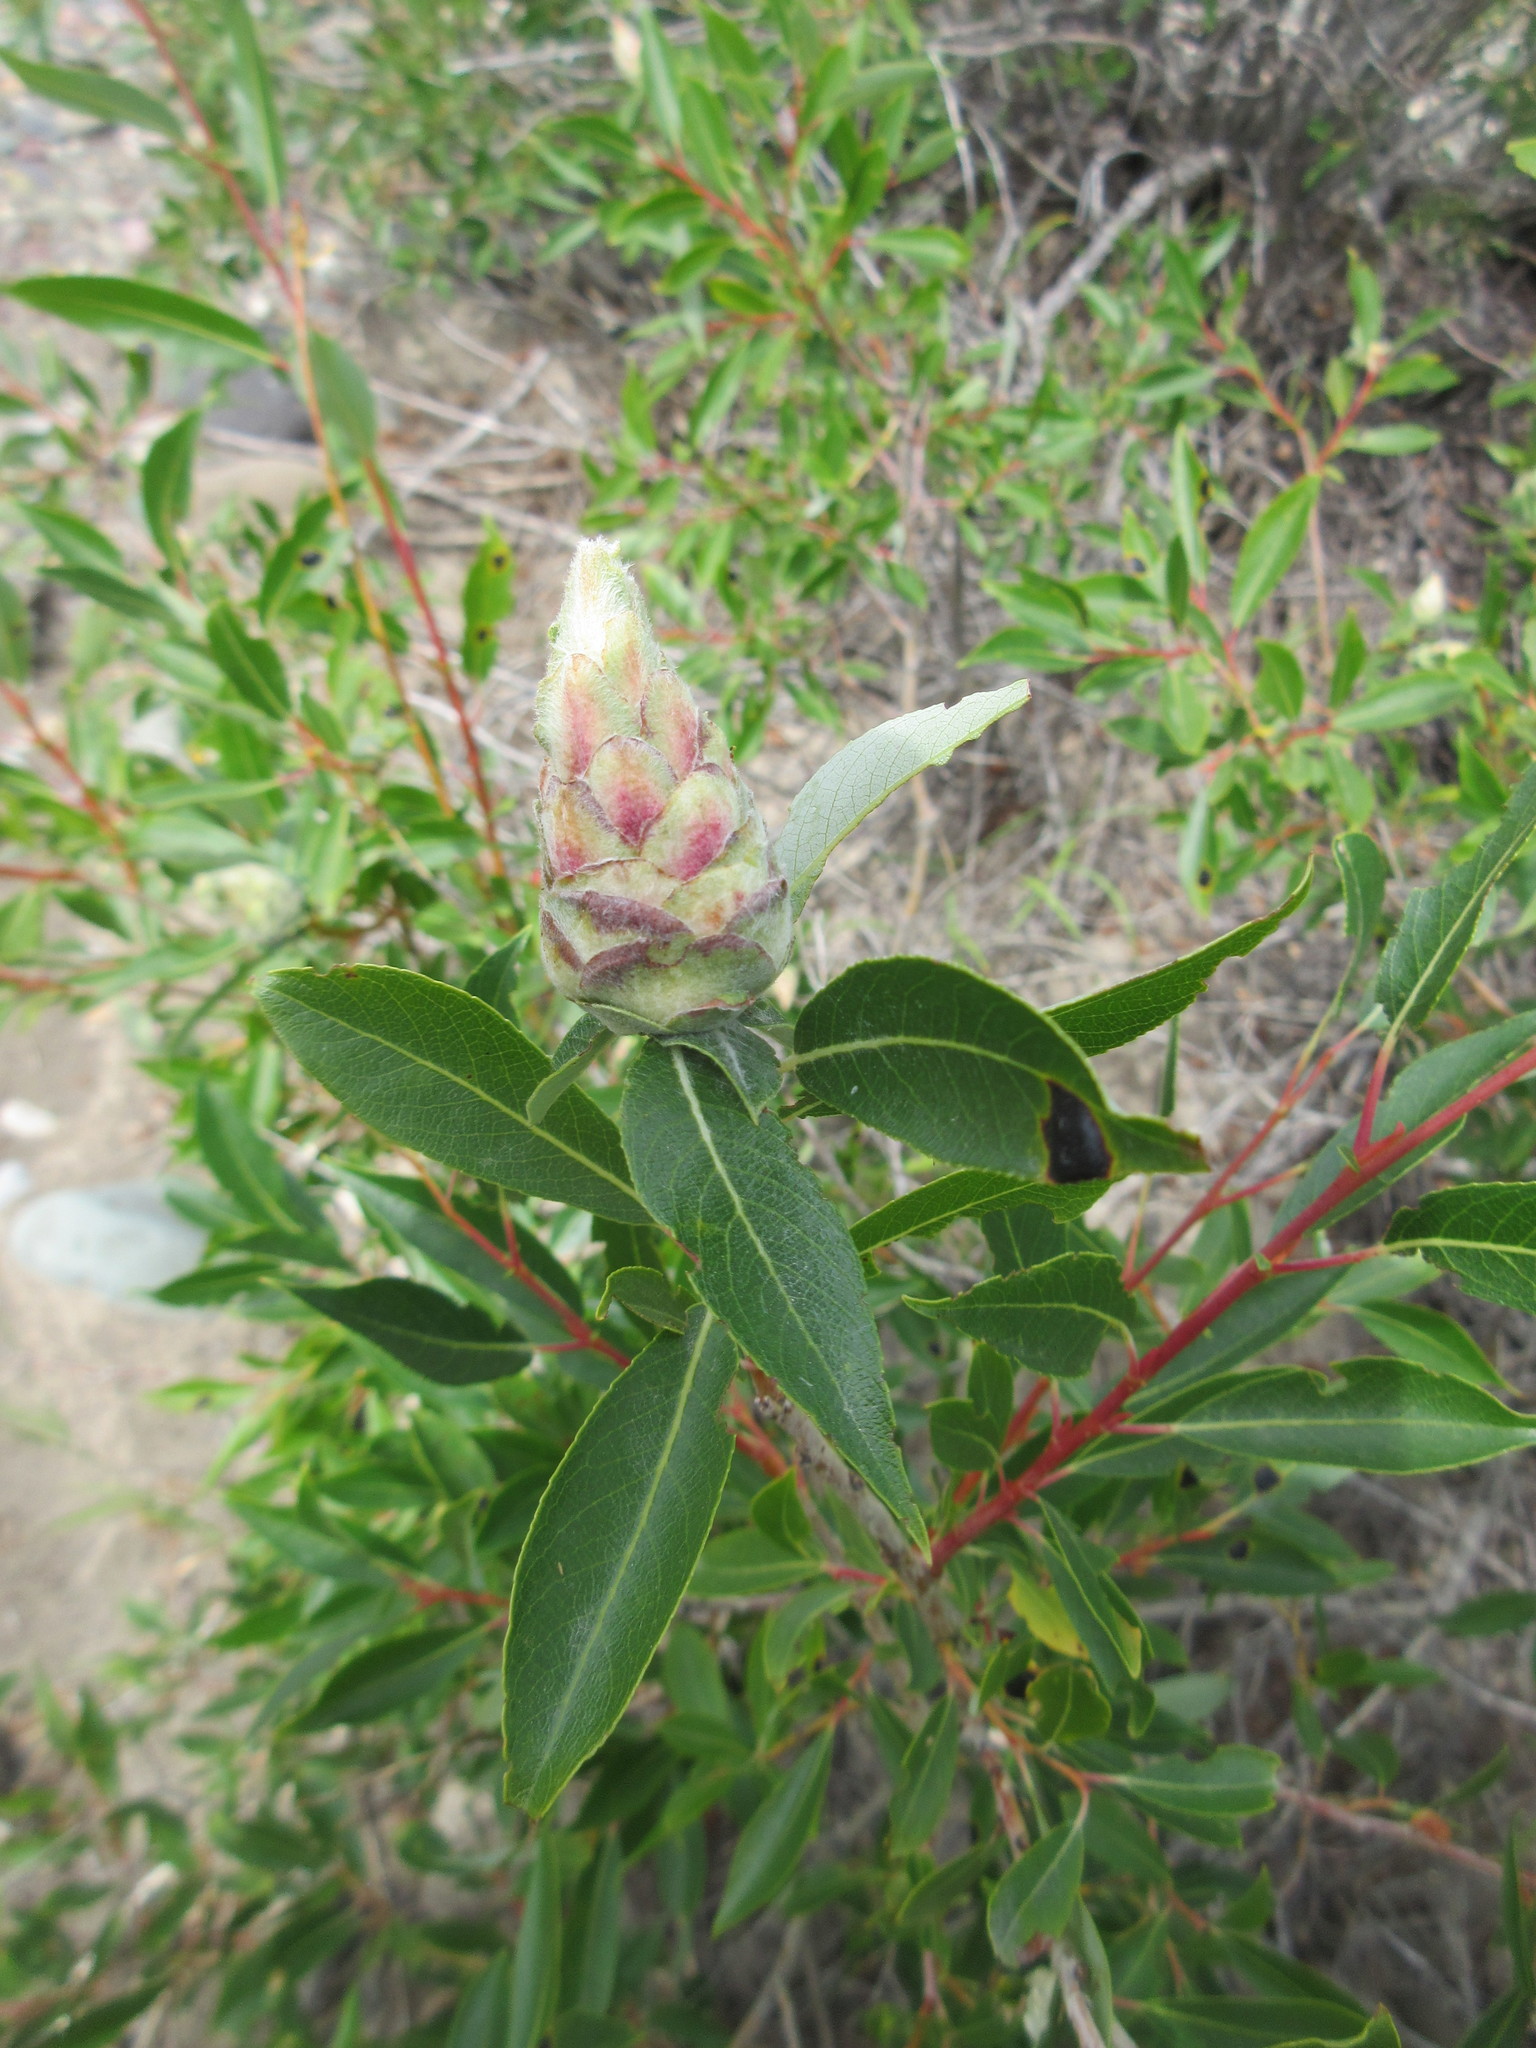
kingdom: Animalia
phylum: Arthropoda
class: Insecta
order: Diptera
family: Cecidomyiidae
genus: Rabdophaga
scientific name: Rabdophaga strobiloides
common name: Willow pinecone gall midge
